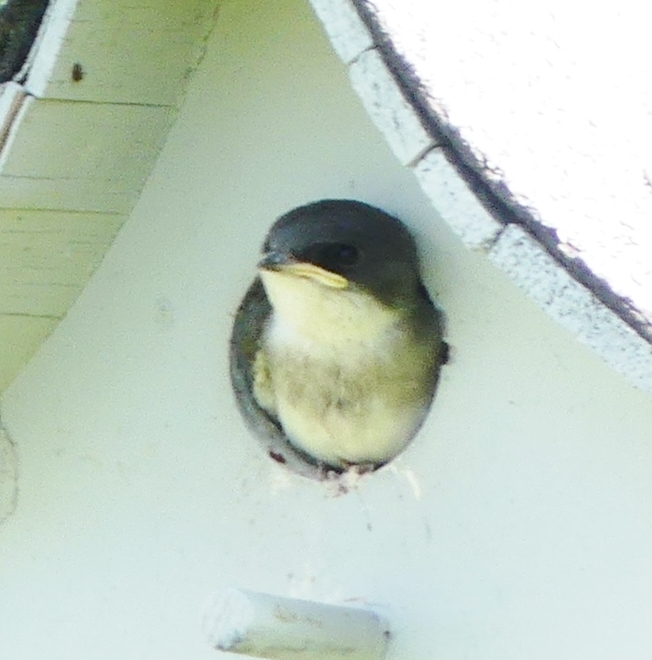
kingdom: Animalia
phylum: Chordata
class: Aves
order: Passeriformes
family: Hirundinidae
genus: Tachycineta
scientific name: Tachycineta bicolor
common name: Tree swallow
